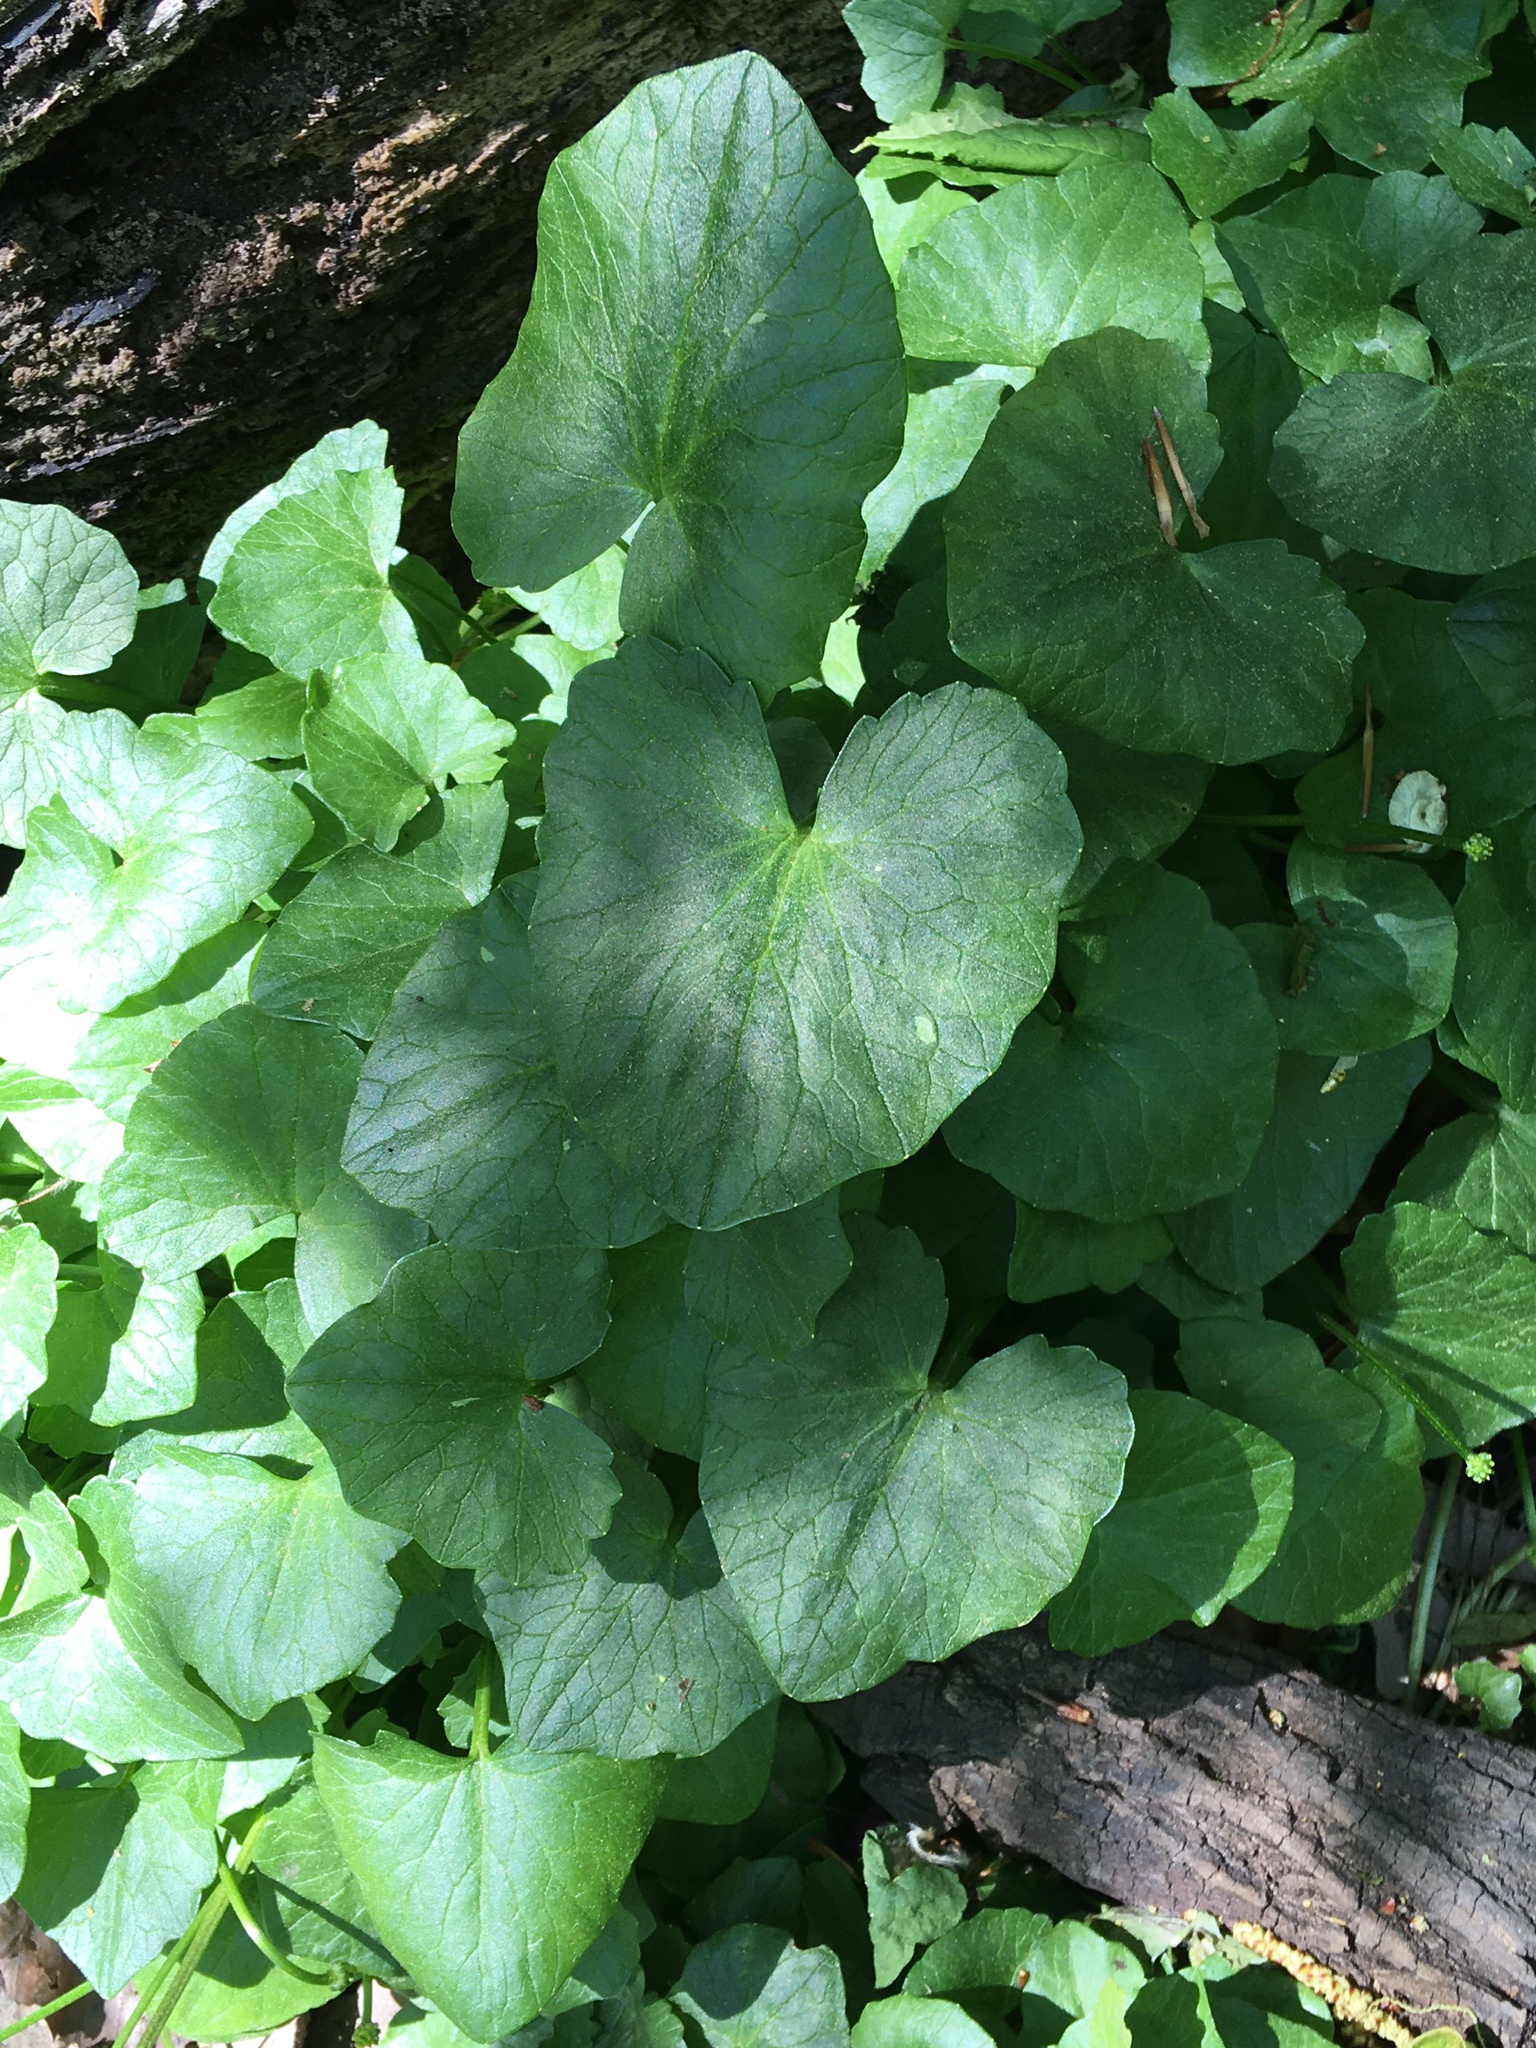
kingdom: Plantae
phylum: Tracheophyta
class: Magnoliopsida
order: Ranunculales
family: Ranunculaceae
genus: Ficaria
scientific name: Ficaria verna
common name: Lesser celandine
